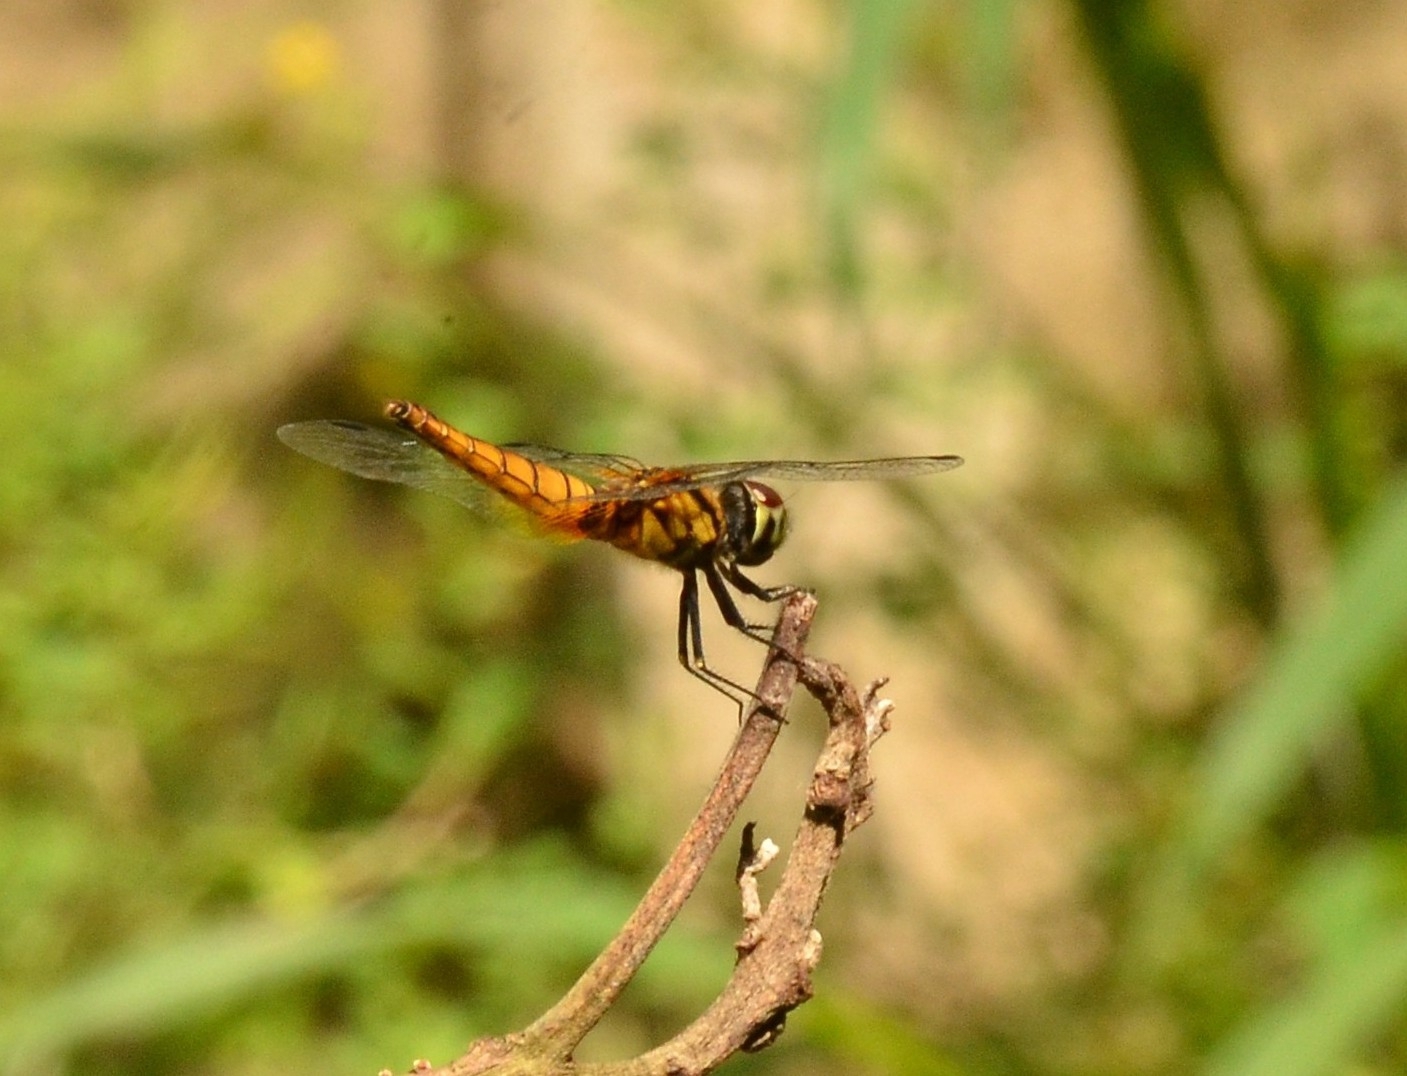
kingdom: Animalia
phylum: Arthropoda
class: Insecta
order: Odonata
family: Libellulidae
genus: Aethriamanta
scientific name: Aethriamanta brevipennis
